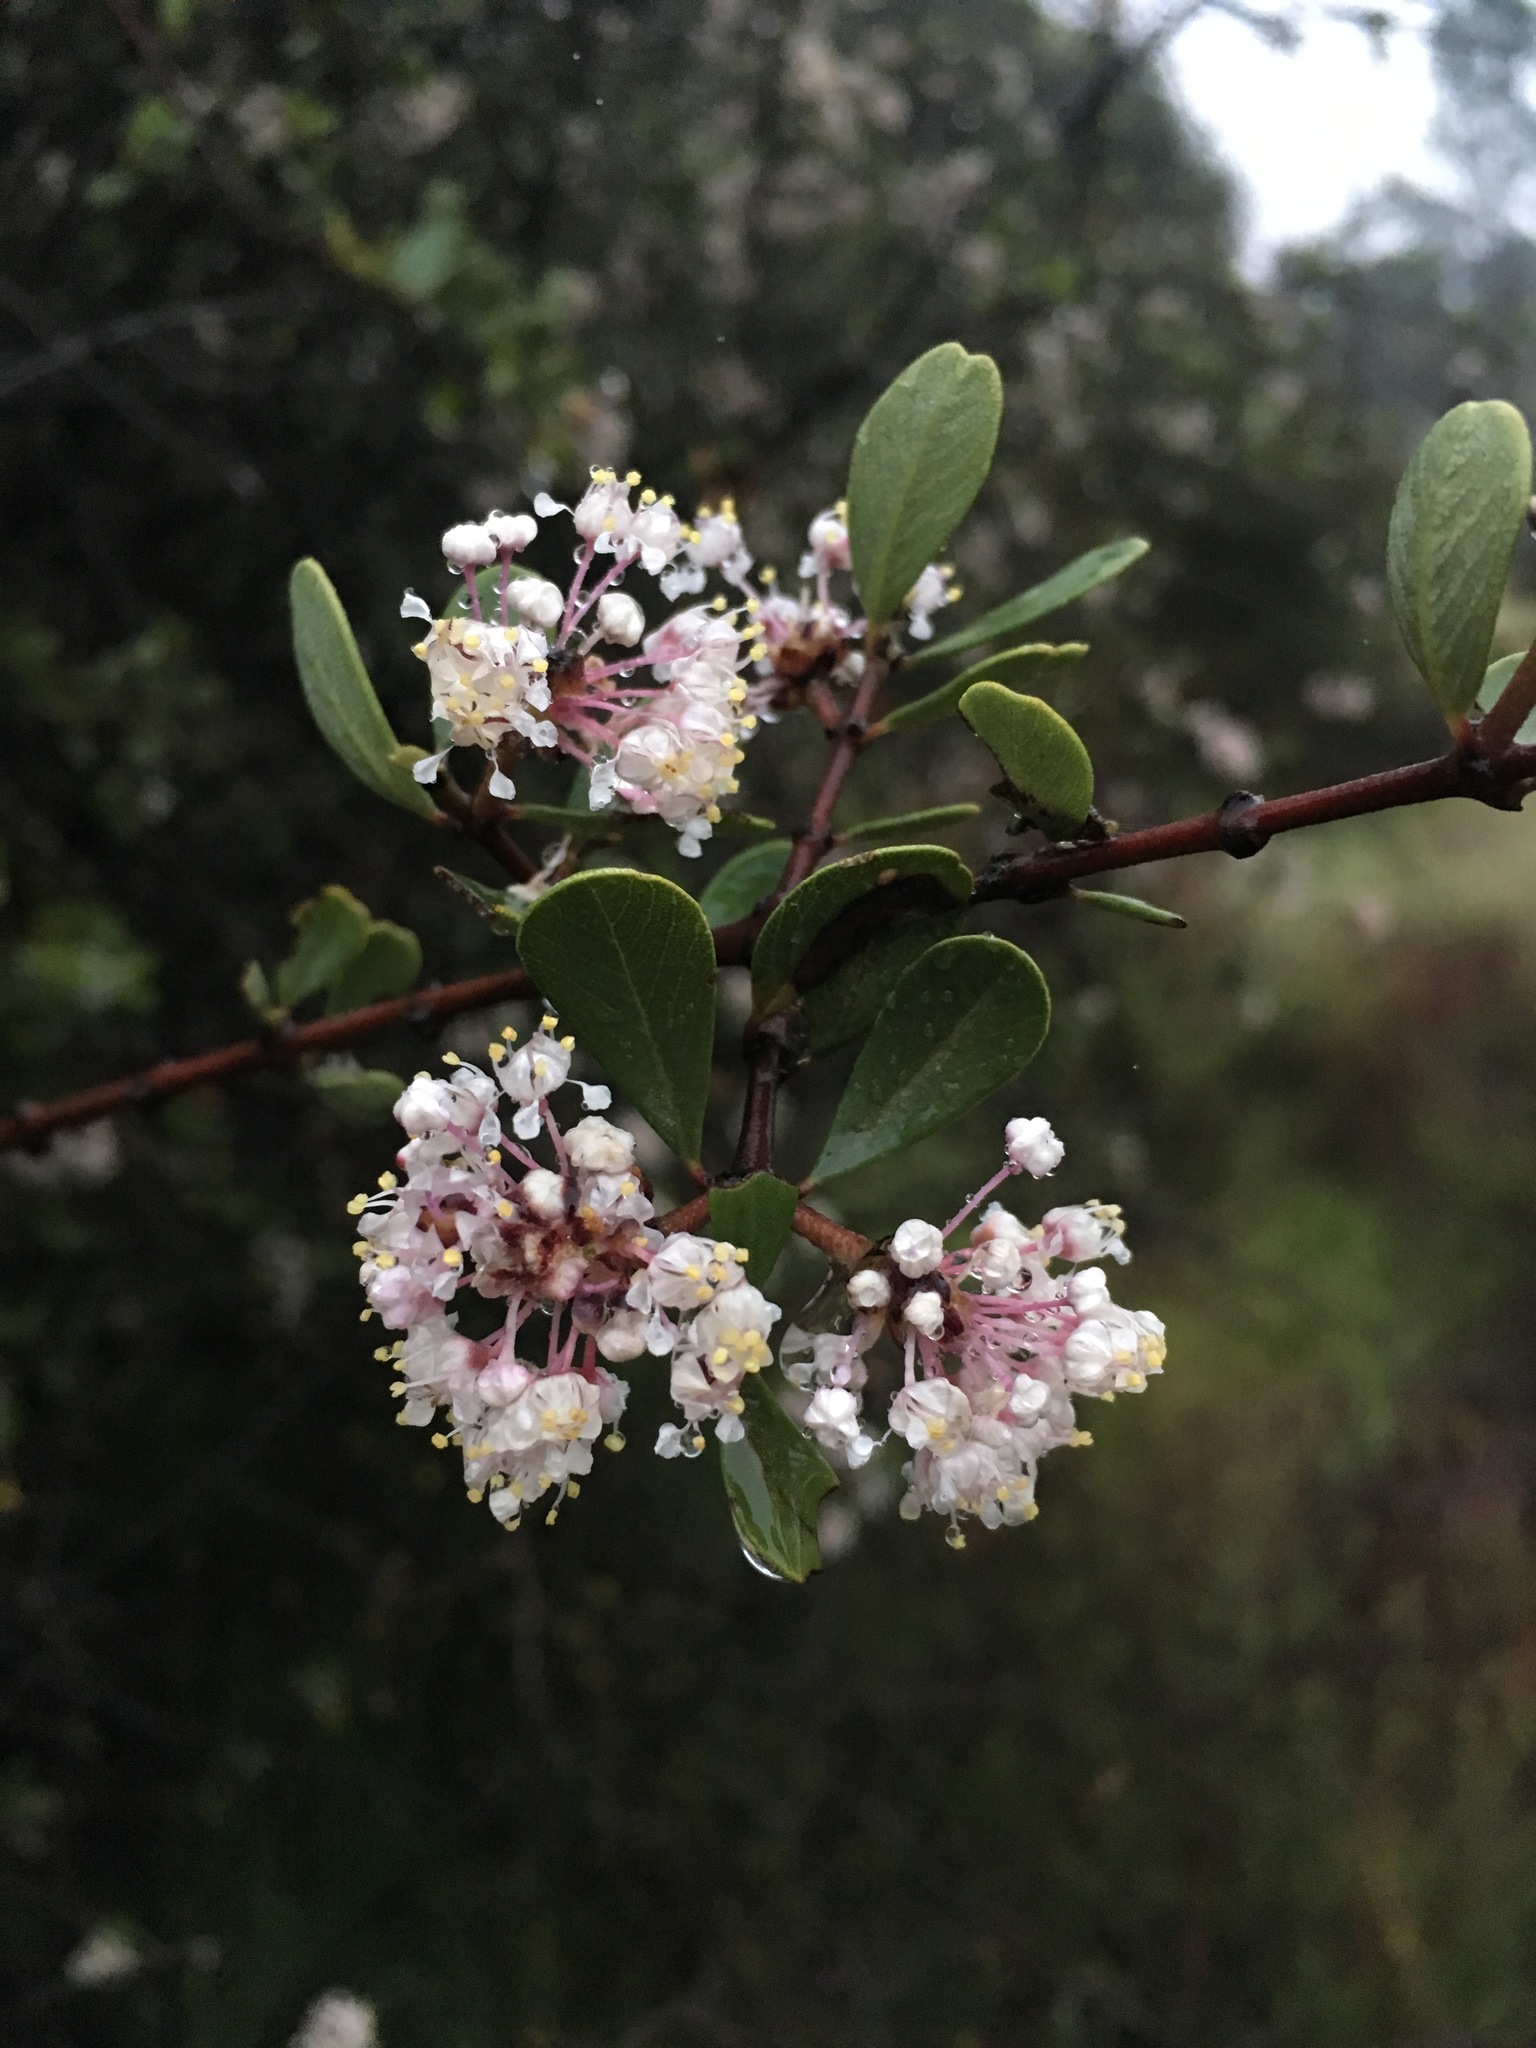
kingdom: Plantae
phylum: Tracheophyta
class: Magnoliopsida
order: Rosales
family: Rhamnaceae
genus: Ceanothus
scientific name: Ceanothus cuneatus
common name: Cuneate ceanothus
